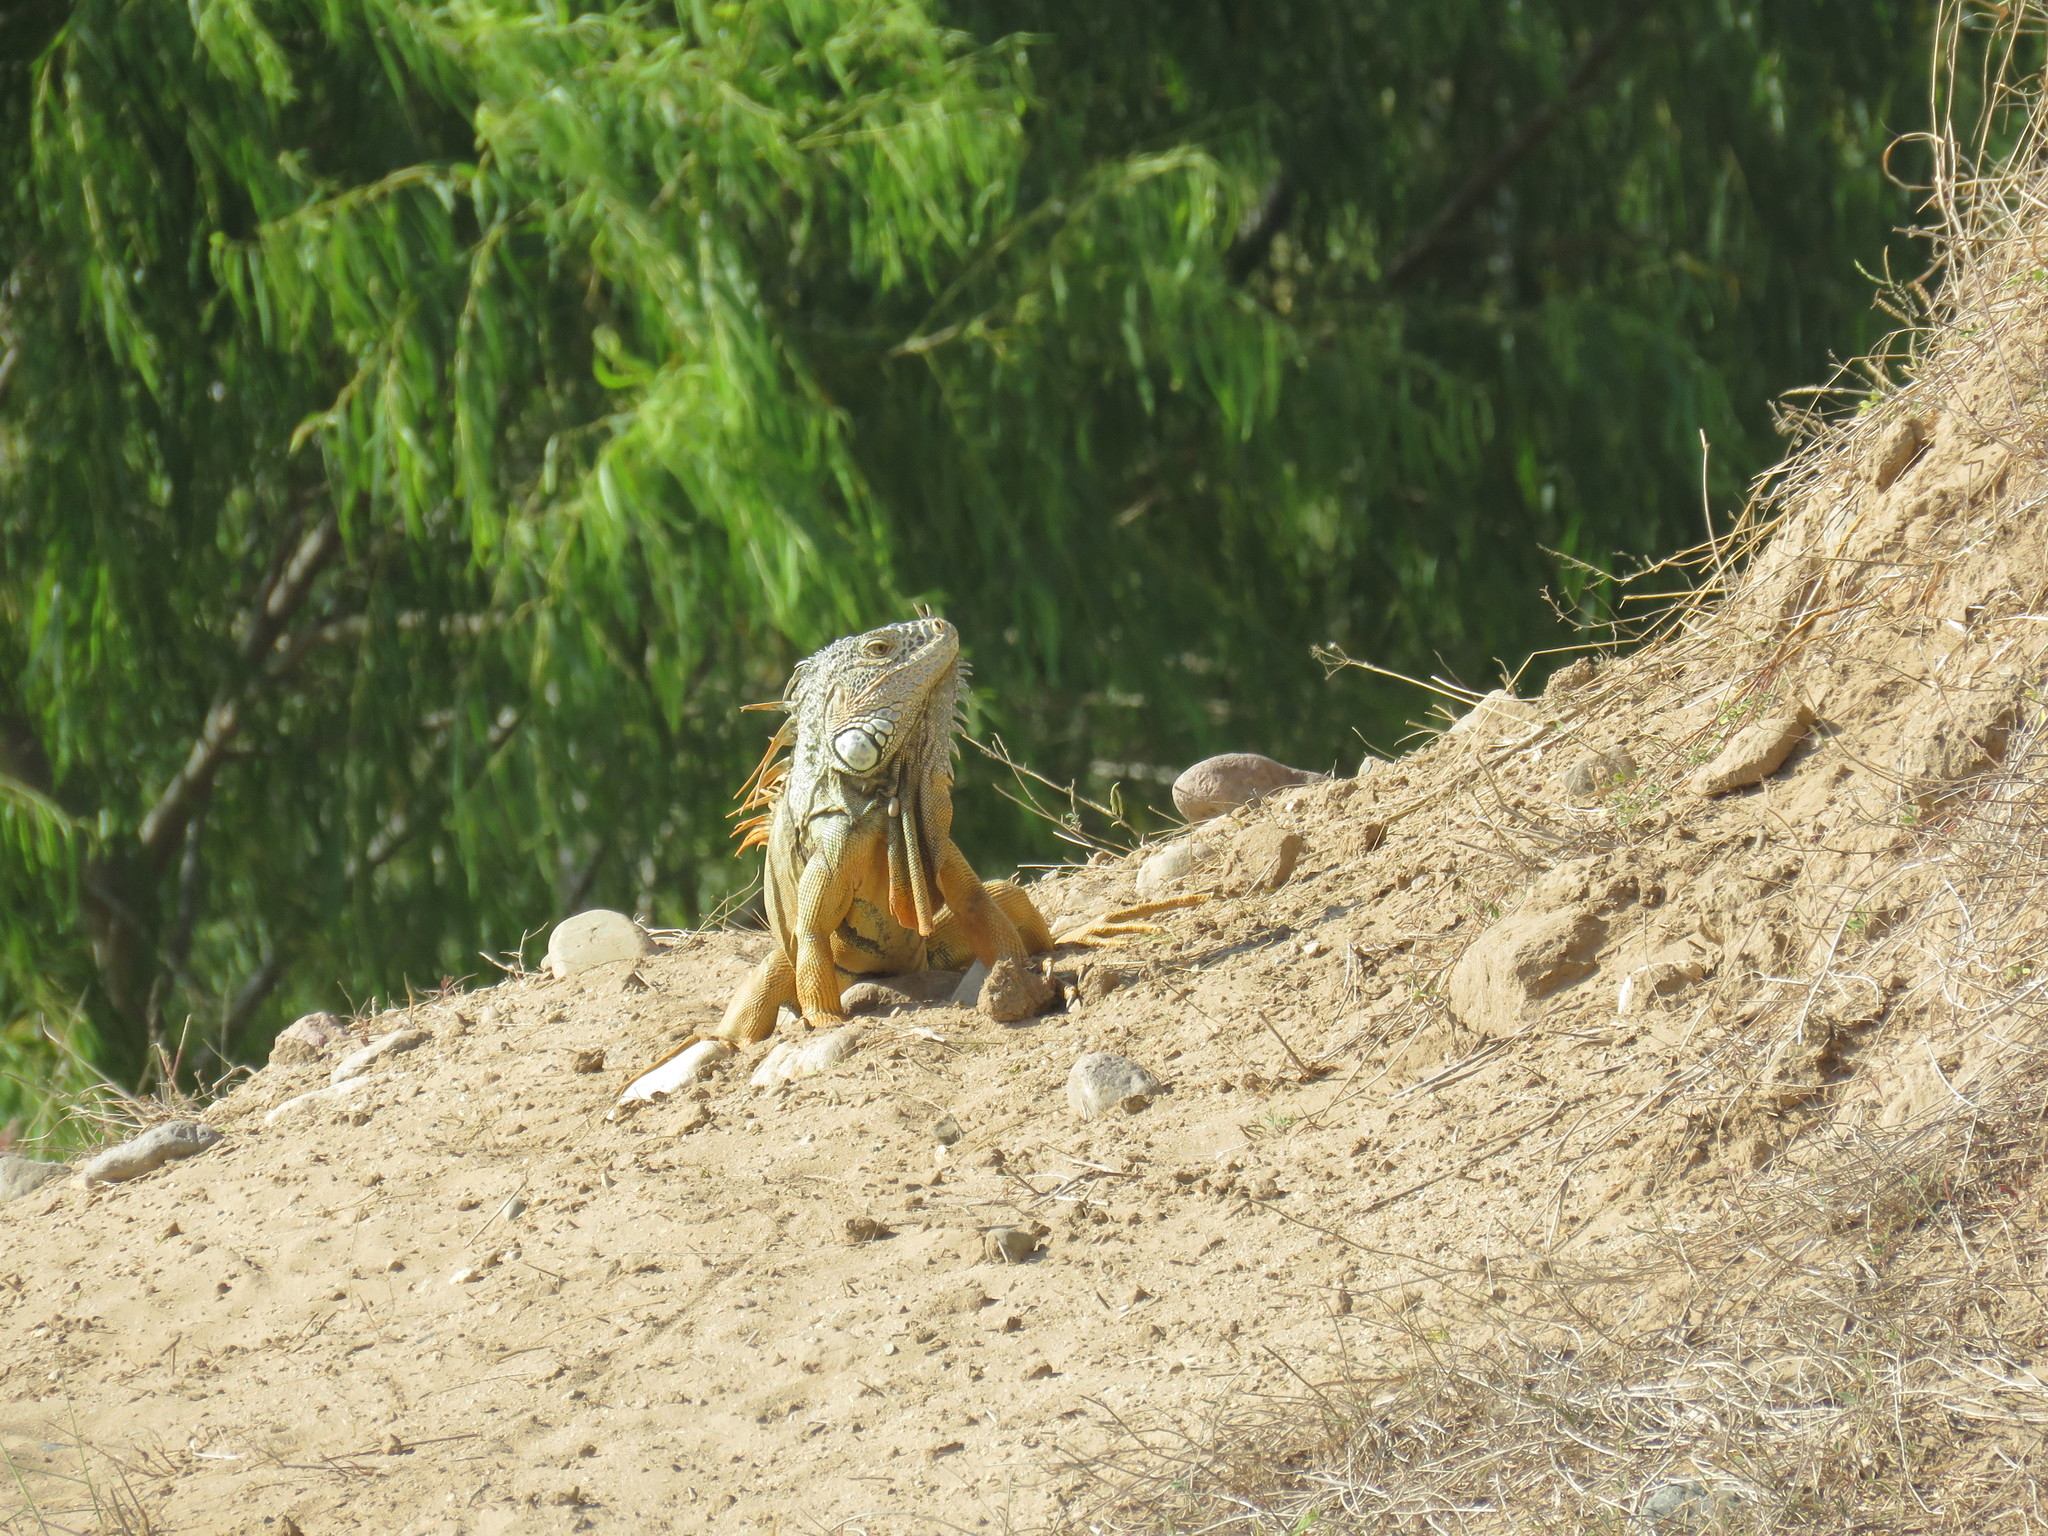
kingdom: Animalia
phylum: Chordata
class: Squamata
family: Iguanidae
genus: Iguana
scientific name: Iguana iguana
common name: Green iguana
